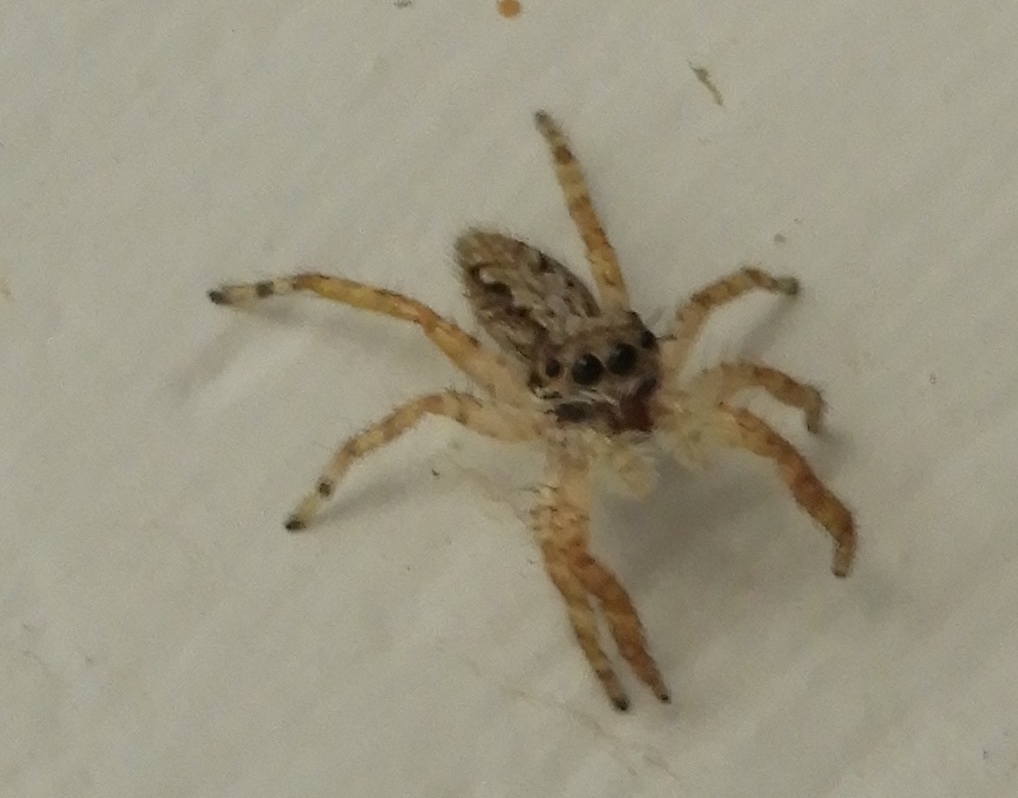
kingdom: Animalia
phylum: Arthropoda
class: Arachnida
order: Araneae
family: Salticidae
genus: Balmaceda
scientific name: Balmaceda
